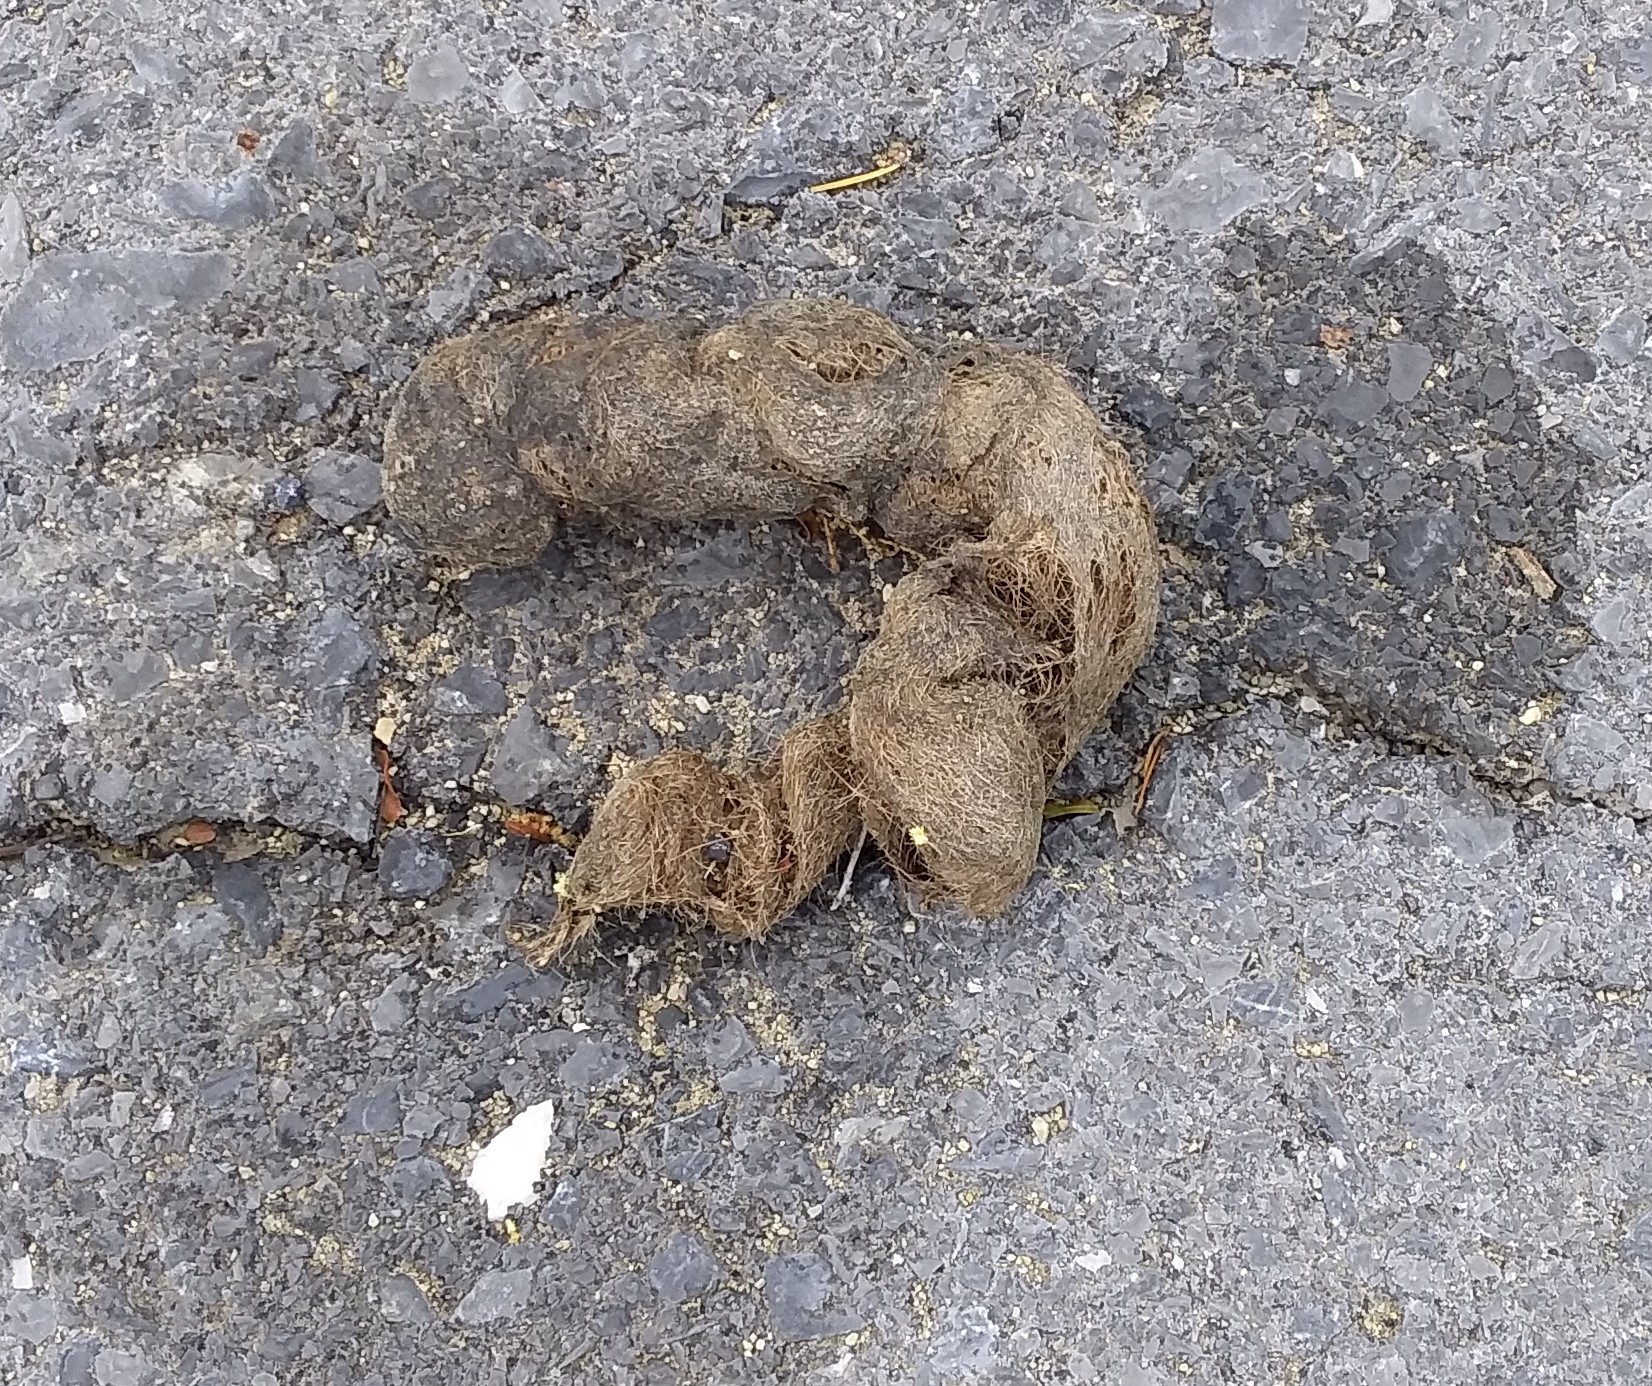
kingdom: Animalia
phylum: Chordata
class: Mammalia
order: Carnivora
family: Canidae
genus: Canis
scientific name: Canis latrans
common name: Coyote
